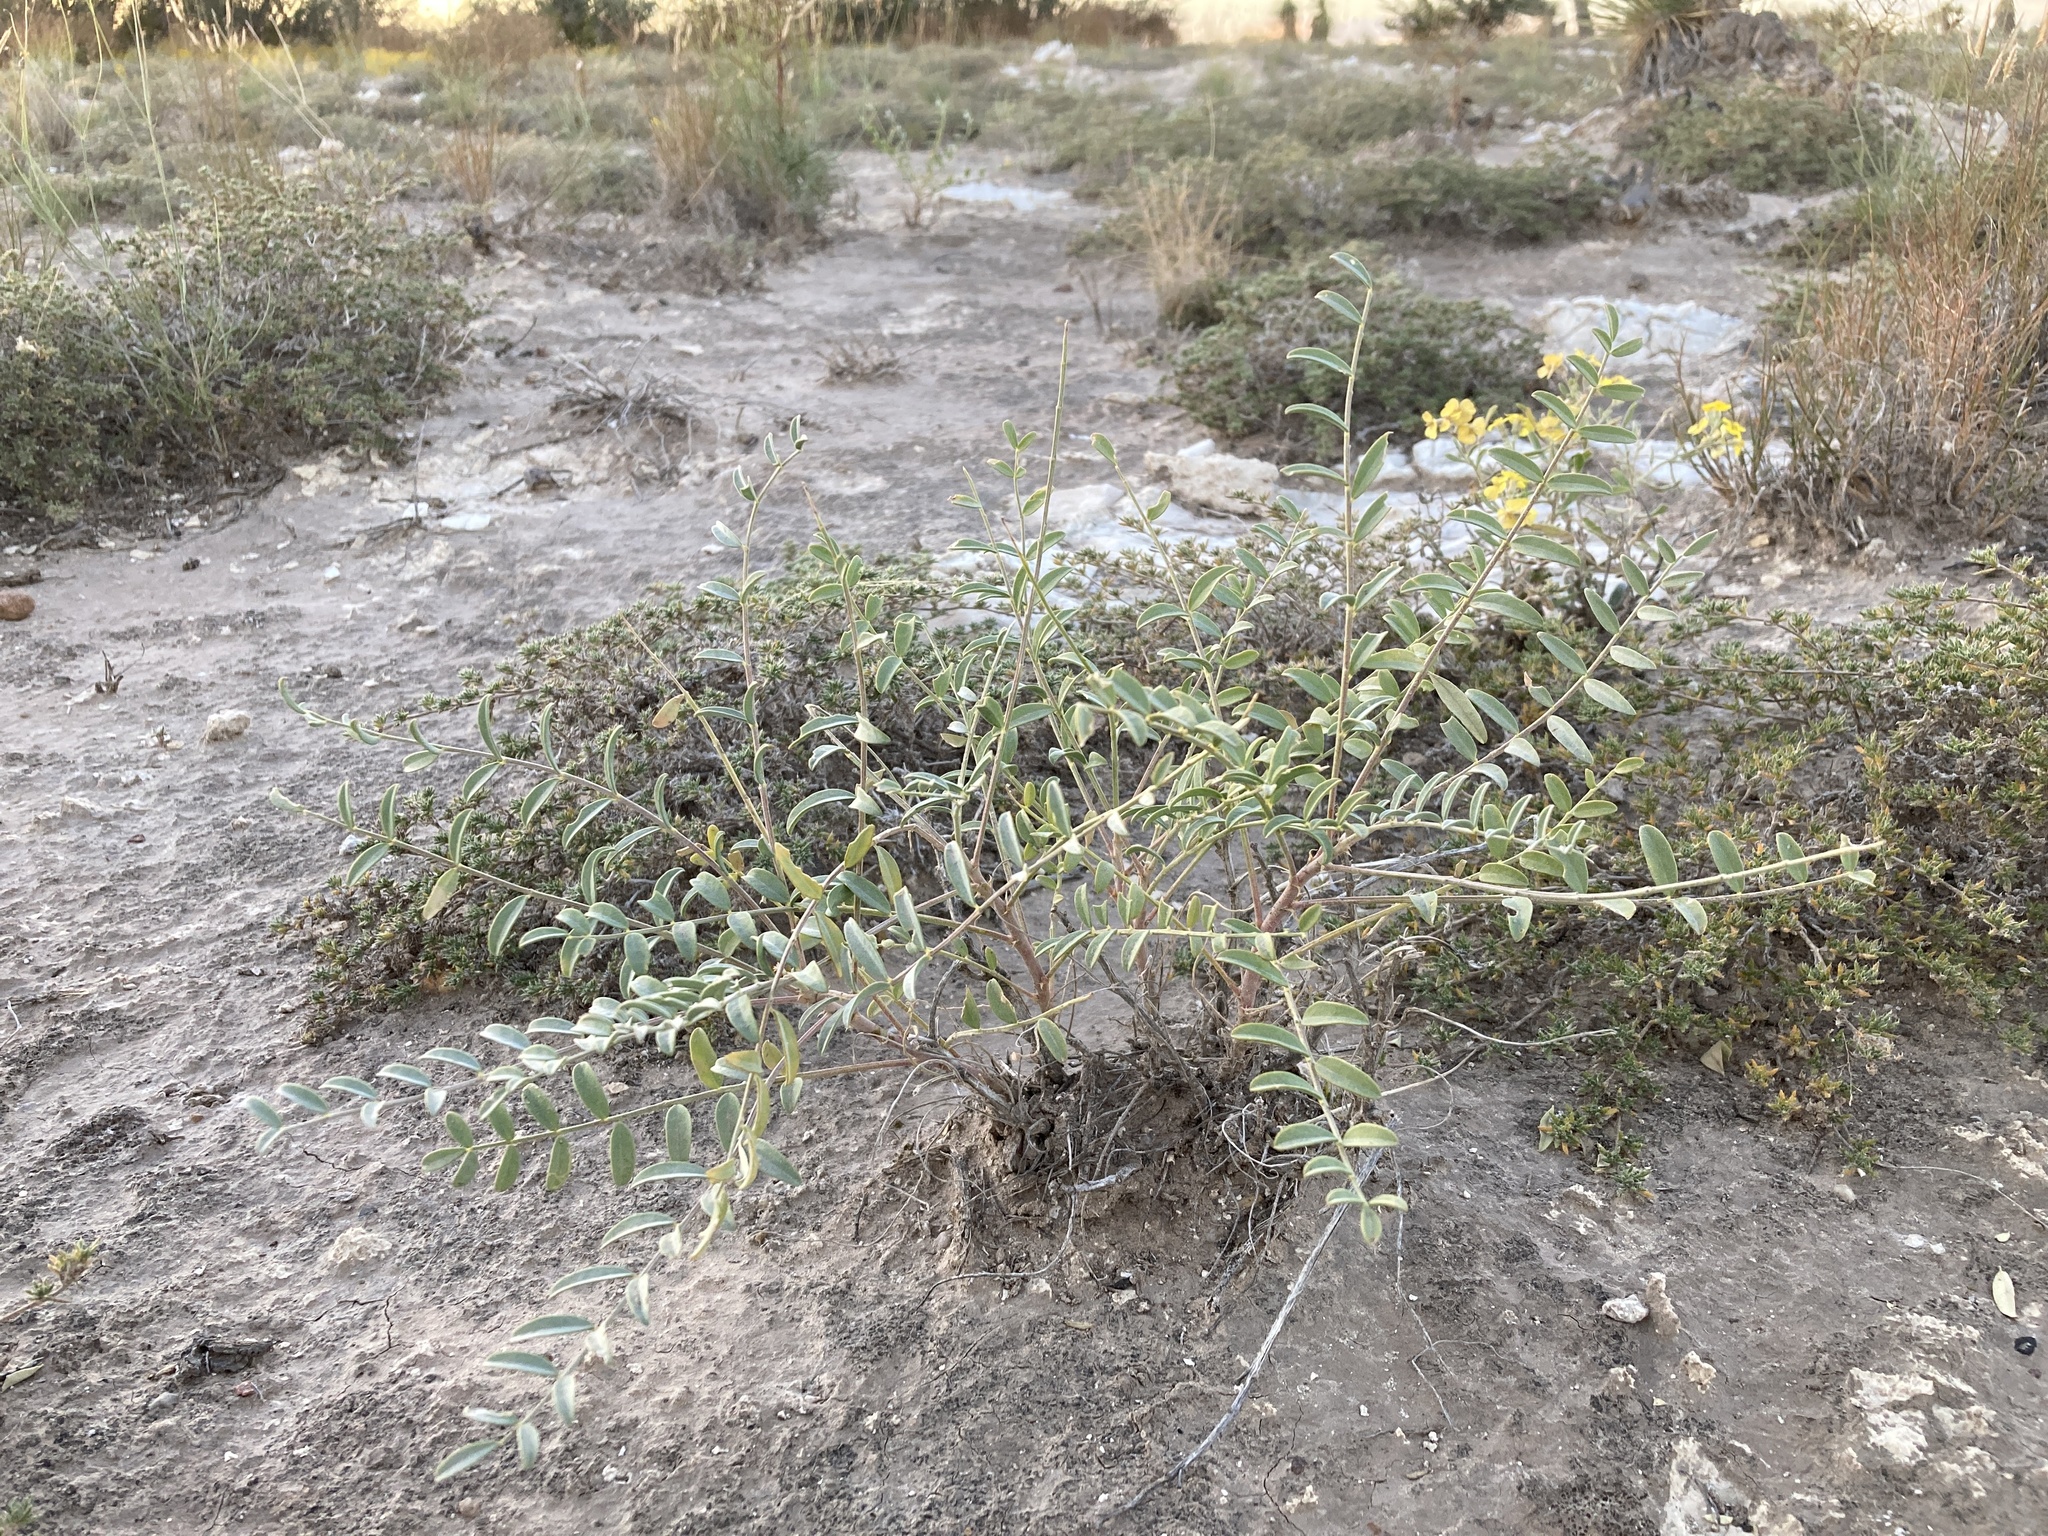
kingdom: Plantae
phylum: Tracheophyta
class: Magnoliopsida
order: Fabales
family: Fabaceae
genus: Astragalus
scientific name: Astragalus gypsodes
